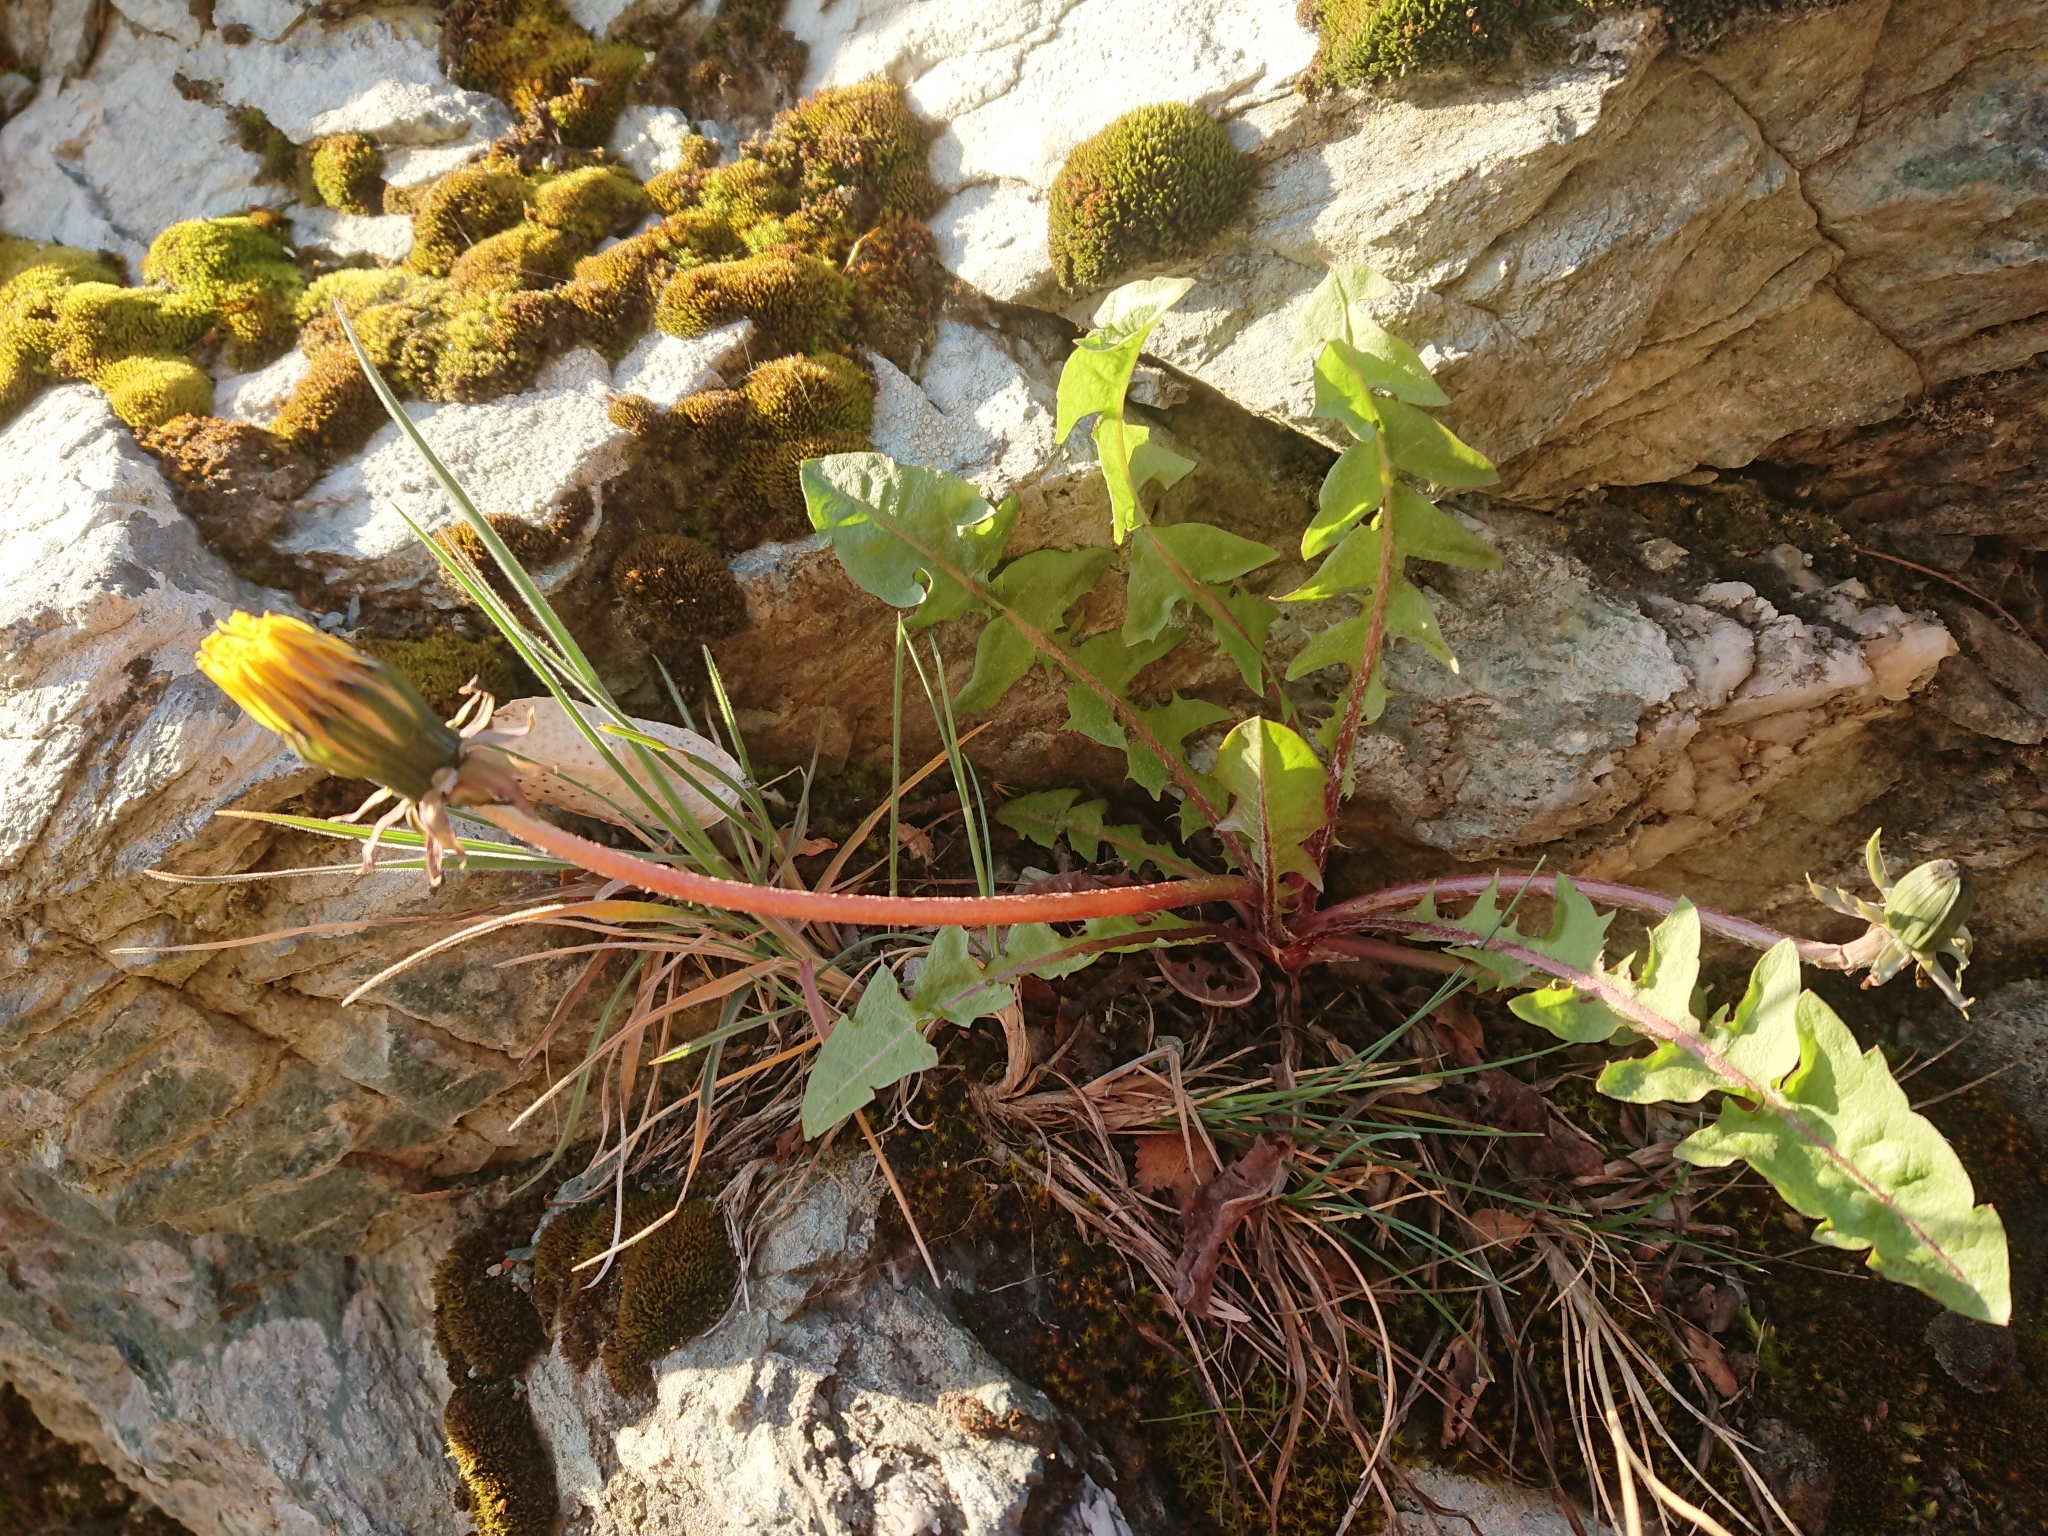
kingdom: Plantae
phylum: Tracheophyta
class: Magnoliopsida
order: Asterales
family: Asteraceae
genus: Taraxacum
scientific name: Taraxacum officinale
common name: Common dandelion
